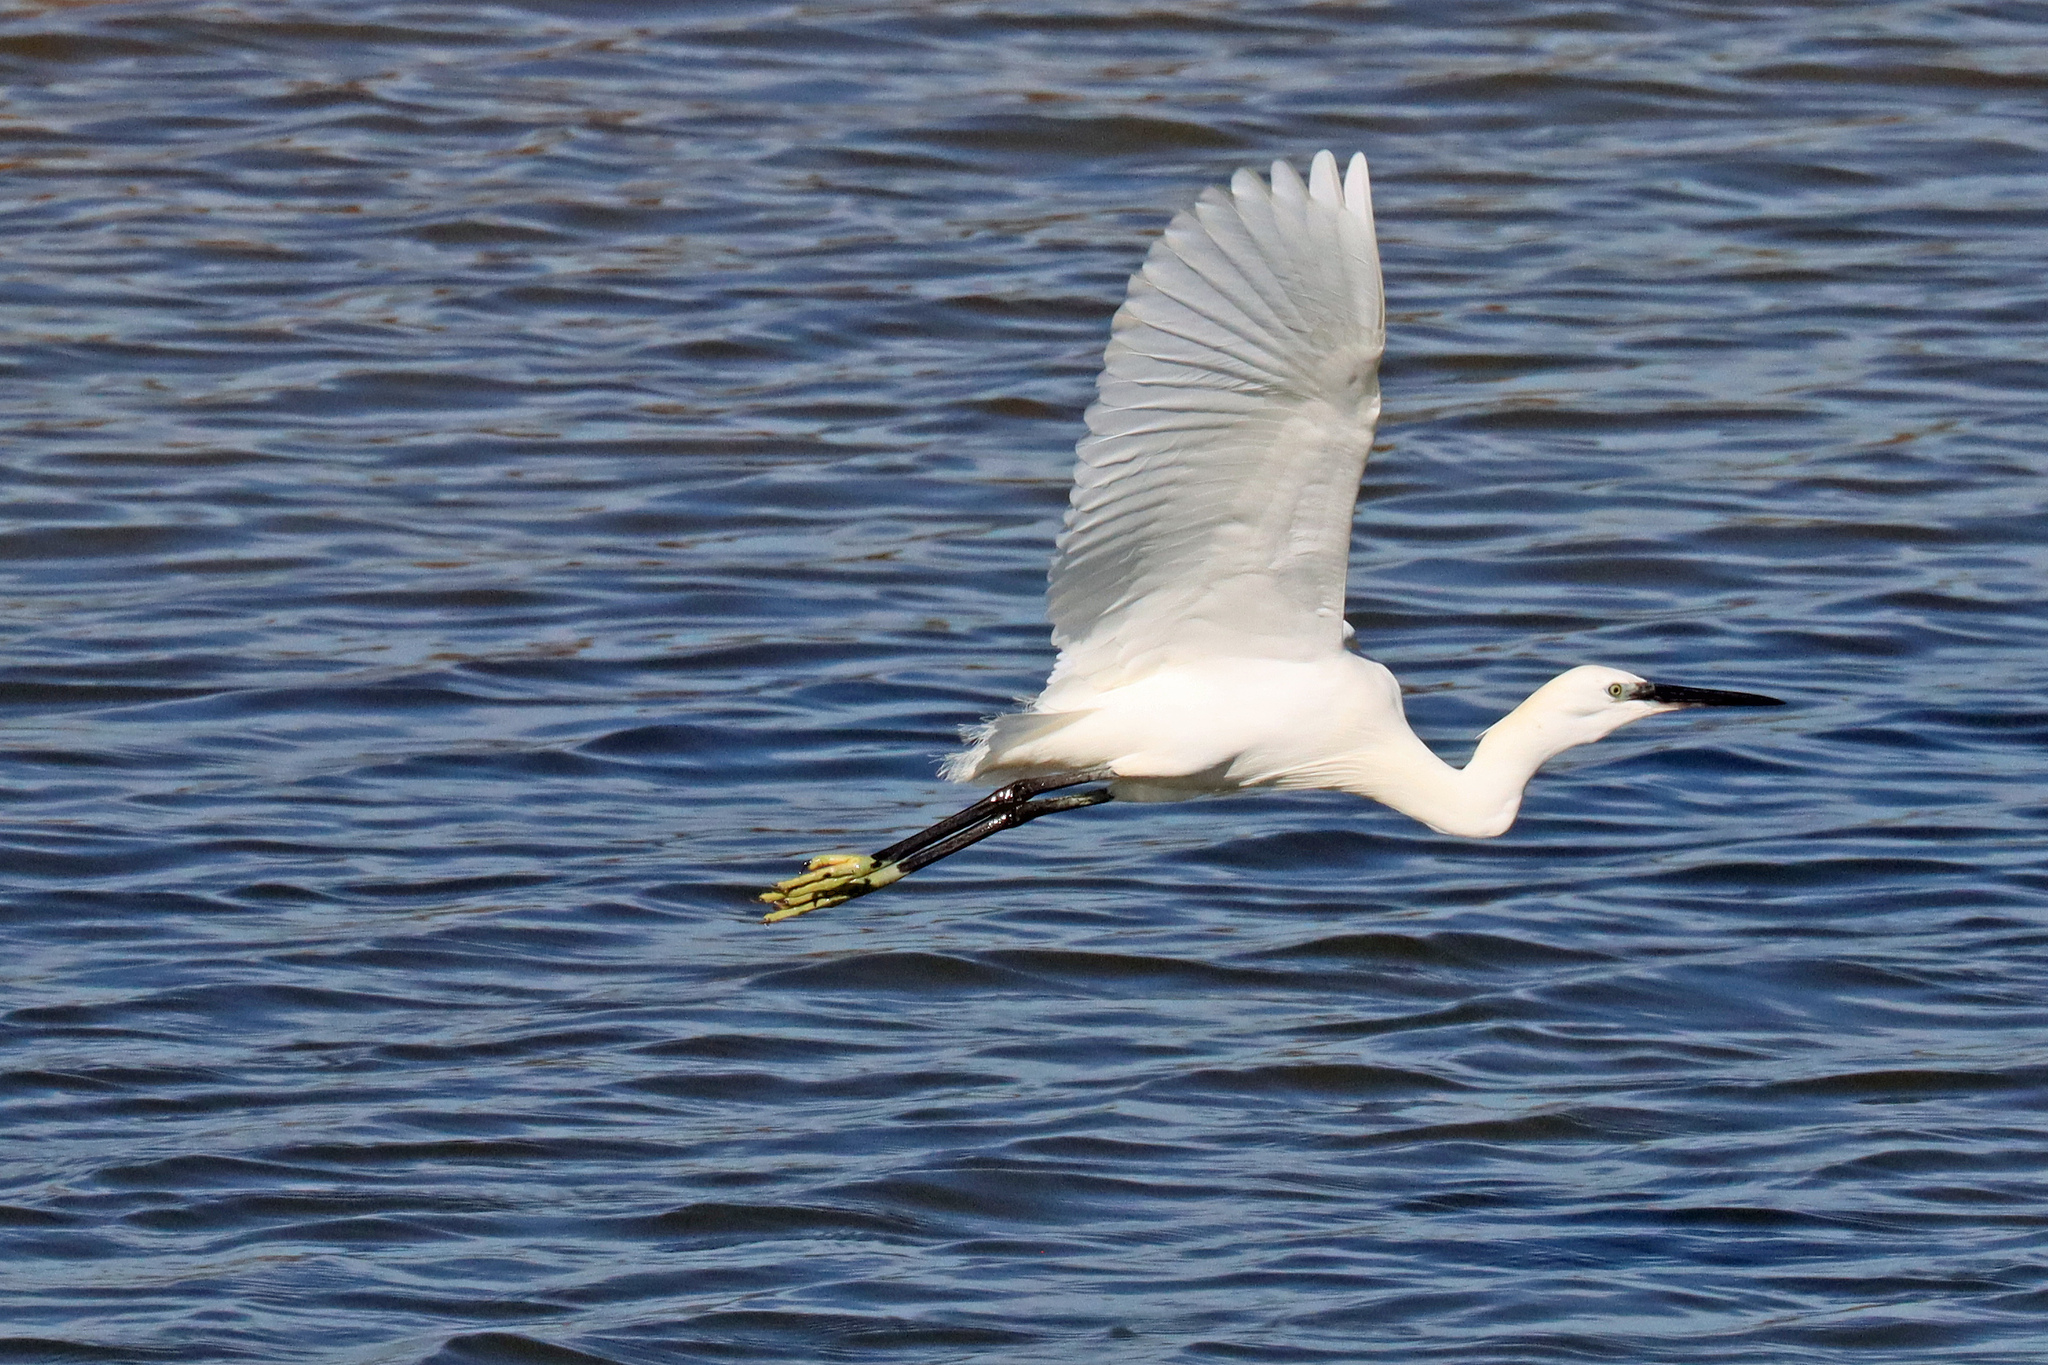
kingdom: Animalia
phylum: Chordata
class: Aves
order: Pelecaniformes
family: Ardeidae
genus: Egretta
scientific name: Egretta garzetta
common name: Little egret
